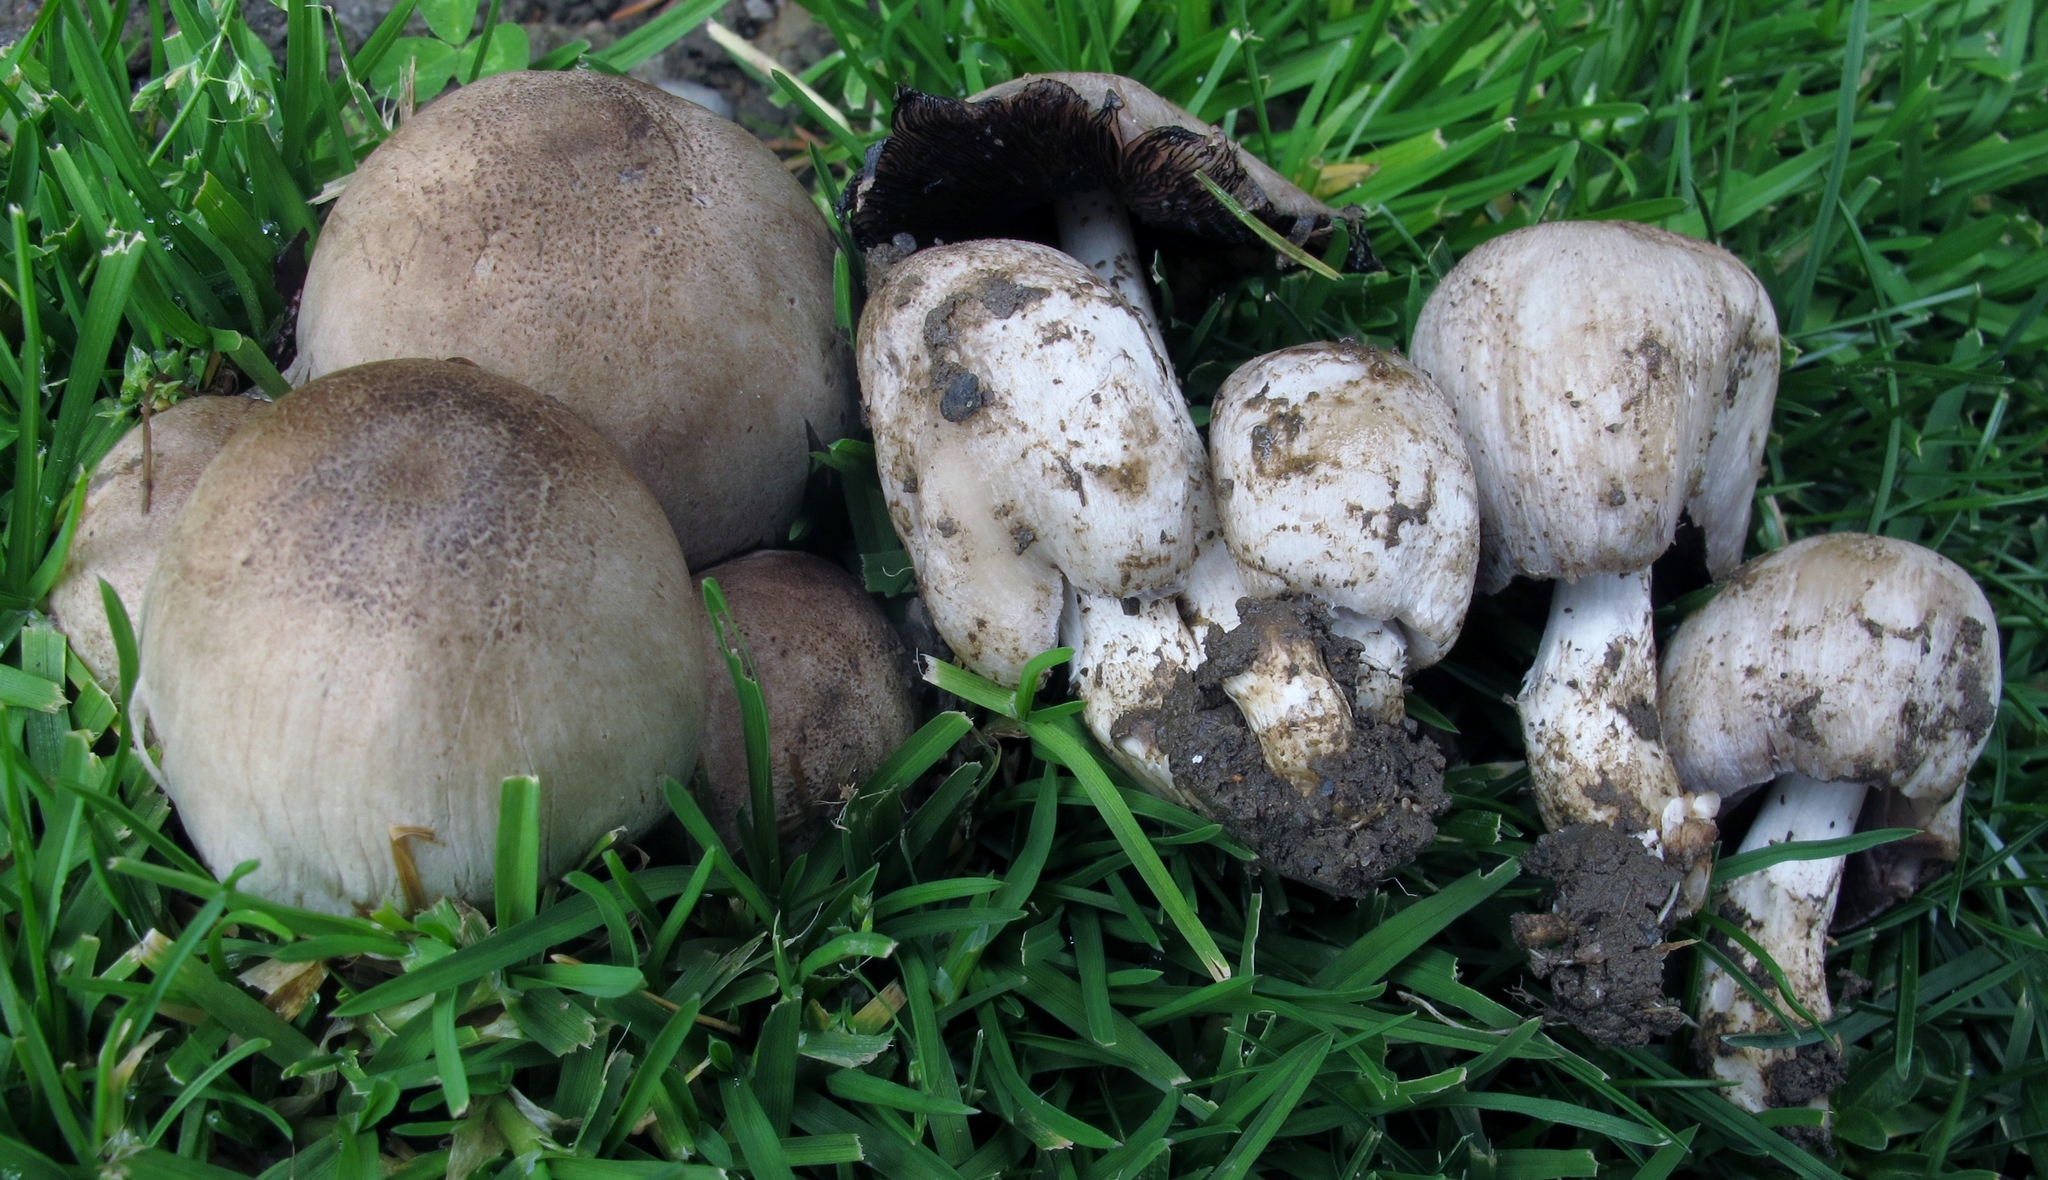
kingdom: Fungi
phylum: Basidiomycota
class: Agaricomycetes
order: Agaricales
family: Psathyrellaceae
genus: Coprinopsis
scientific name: Coprinopsis romagnesiana
